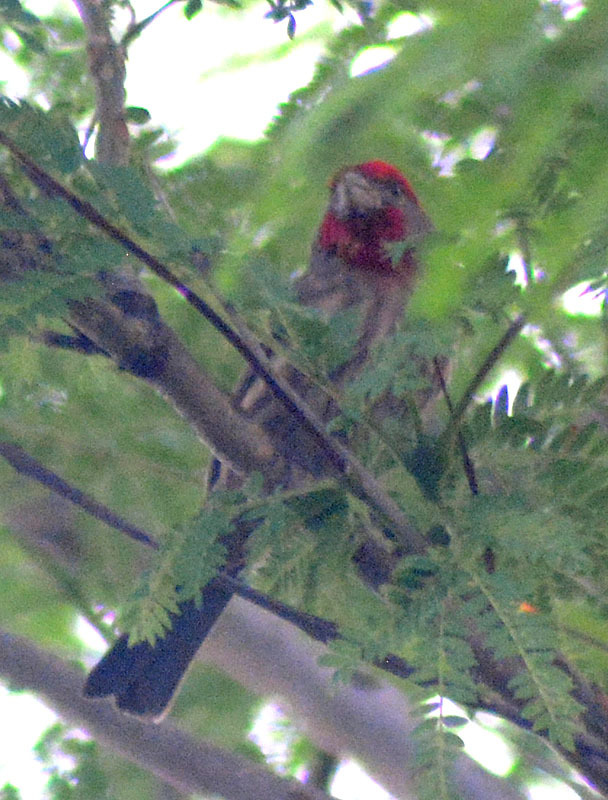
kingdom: Animalia
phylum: Chordata
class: Aves
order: Passeriformes
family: Fringillidae
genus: Haemorhous
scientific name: Haemorhous mexicanus
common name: House finch
